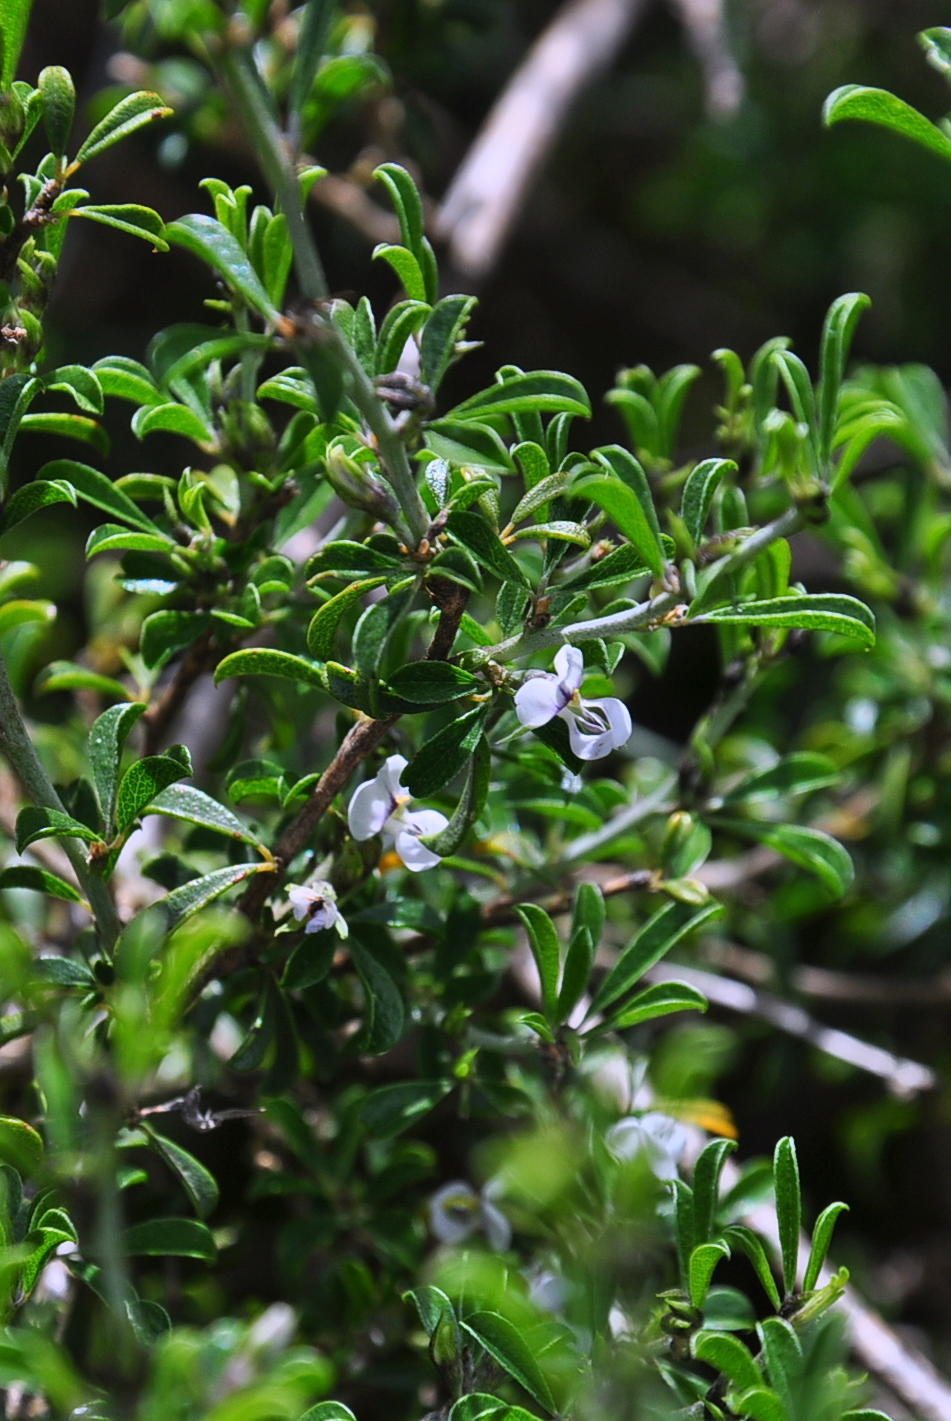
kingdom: Plantae
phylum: Tracheophyta
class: Magnoliopsida
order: Fabales
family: Fabaceae
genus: Psoralea
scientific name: Psoralea spissa
